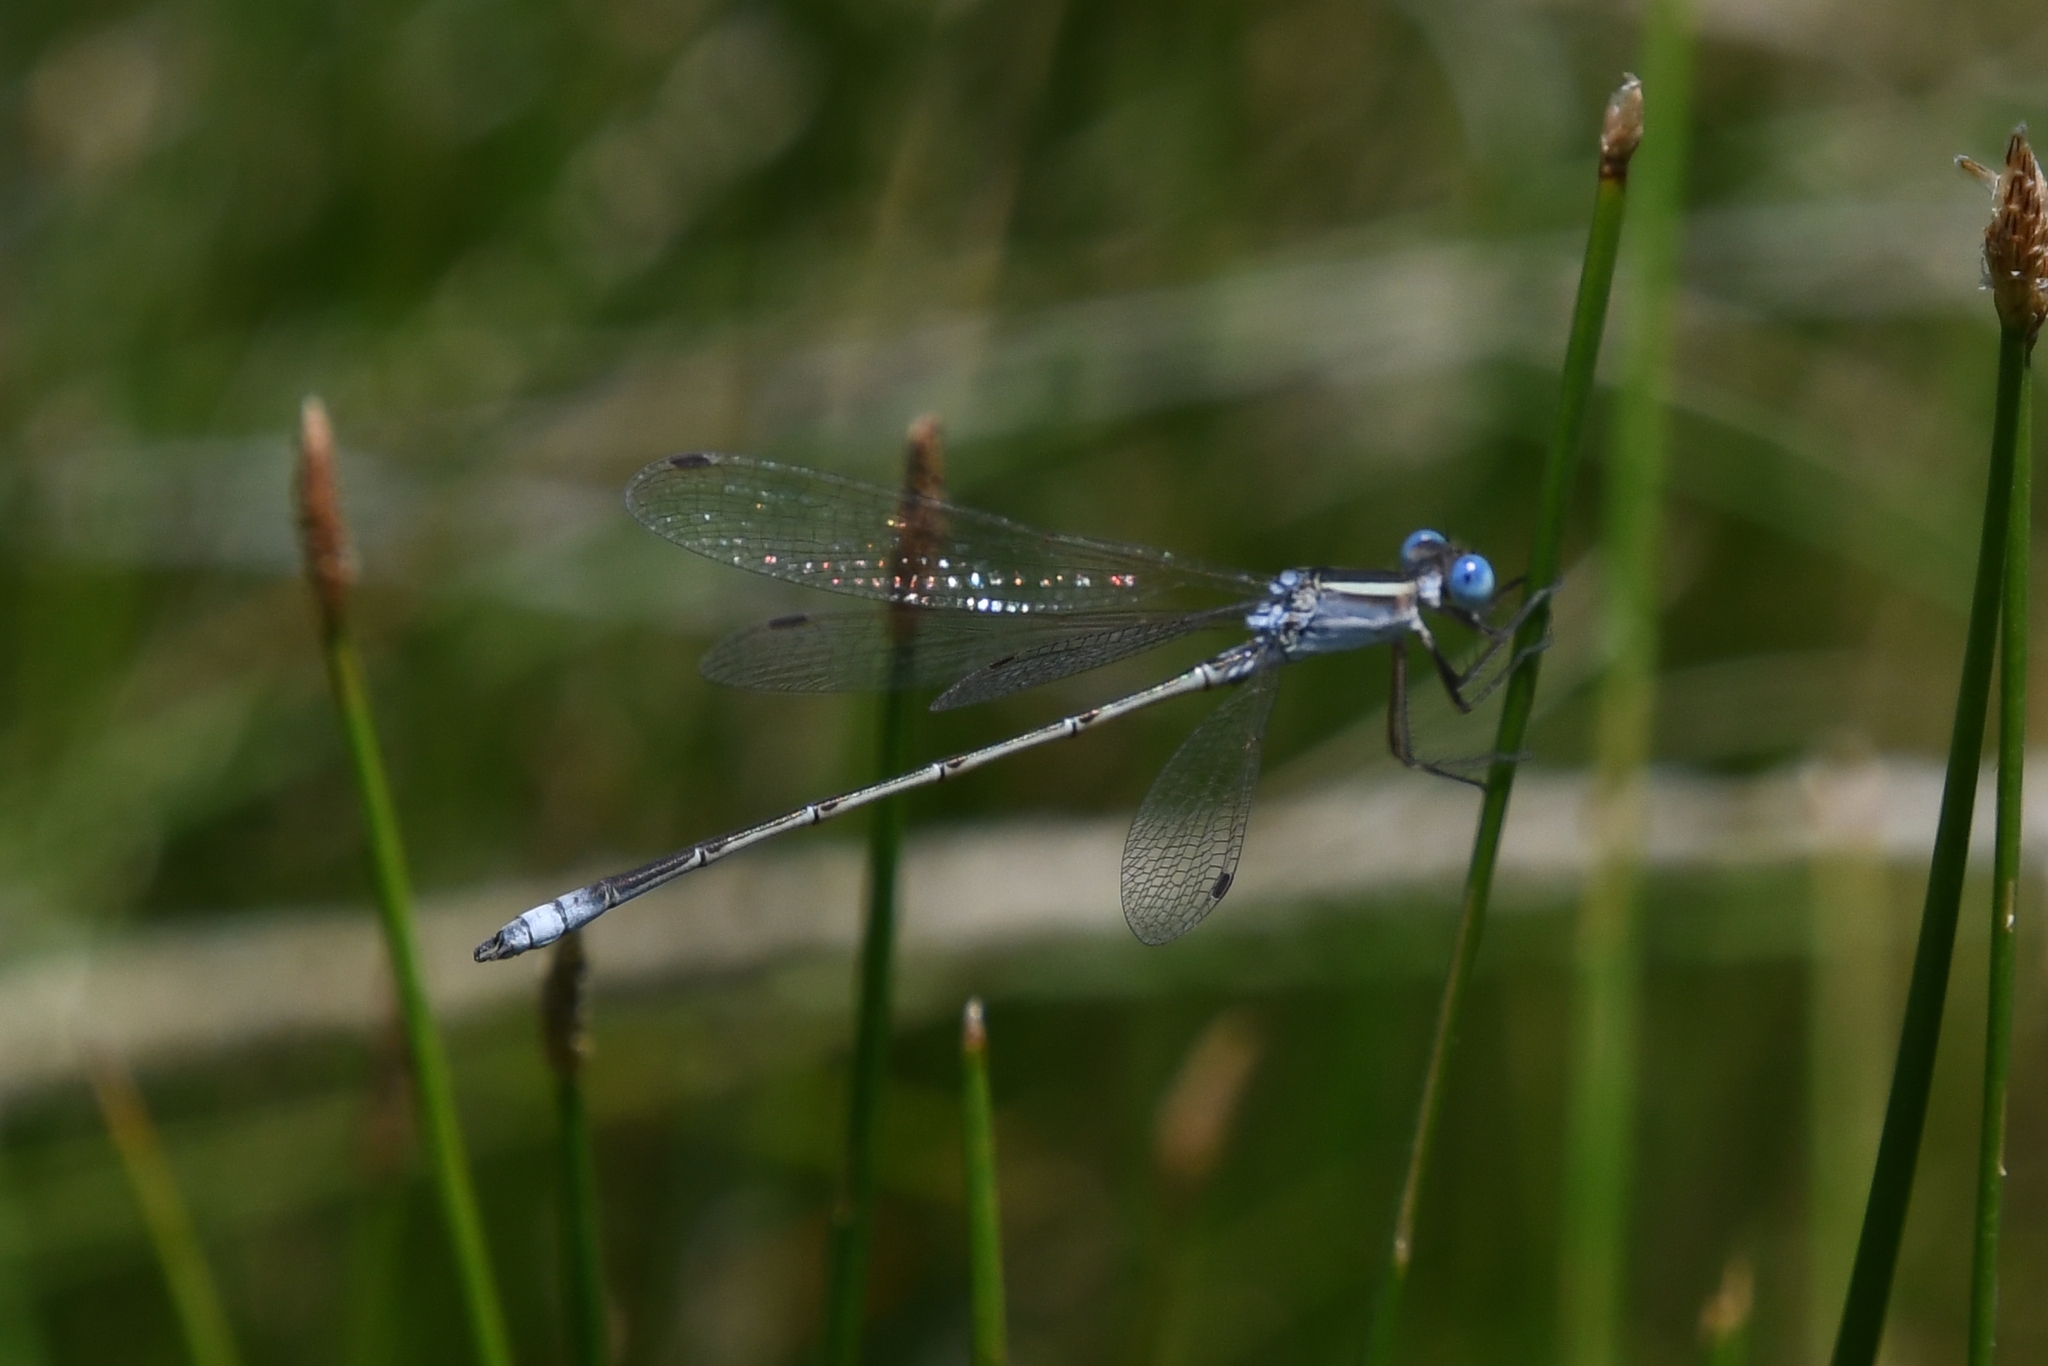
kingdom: Animalia
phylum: Arthropoda
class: Insecta
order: Odonata
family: Lestidae
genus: Lestes
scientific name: Lestes alacer
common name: Plateau spreadwing
